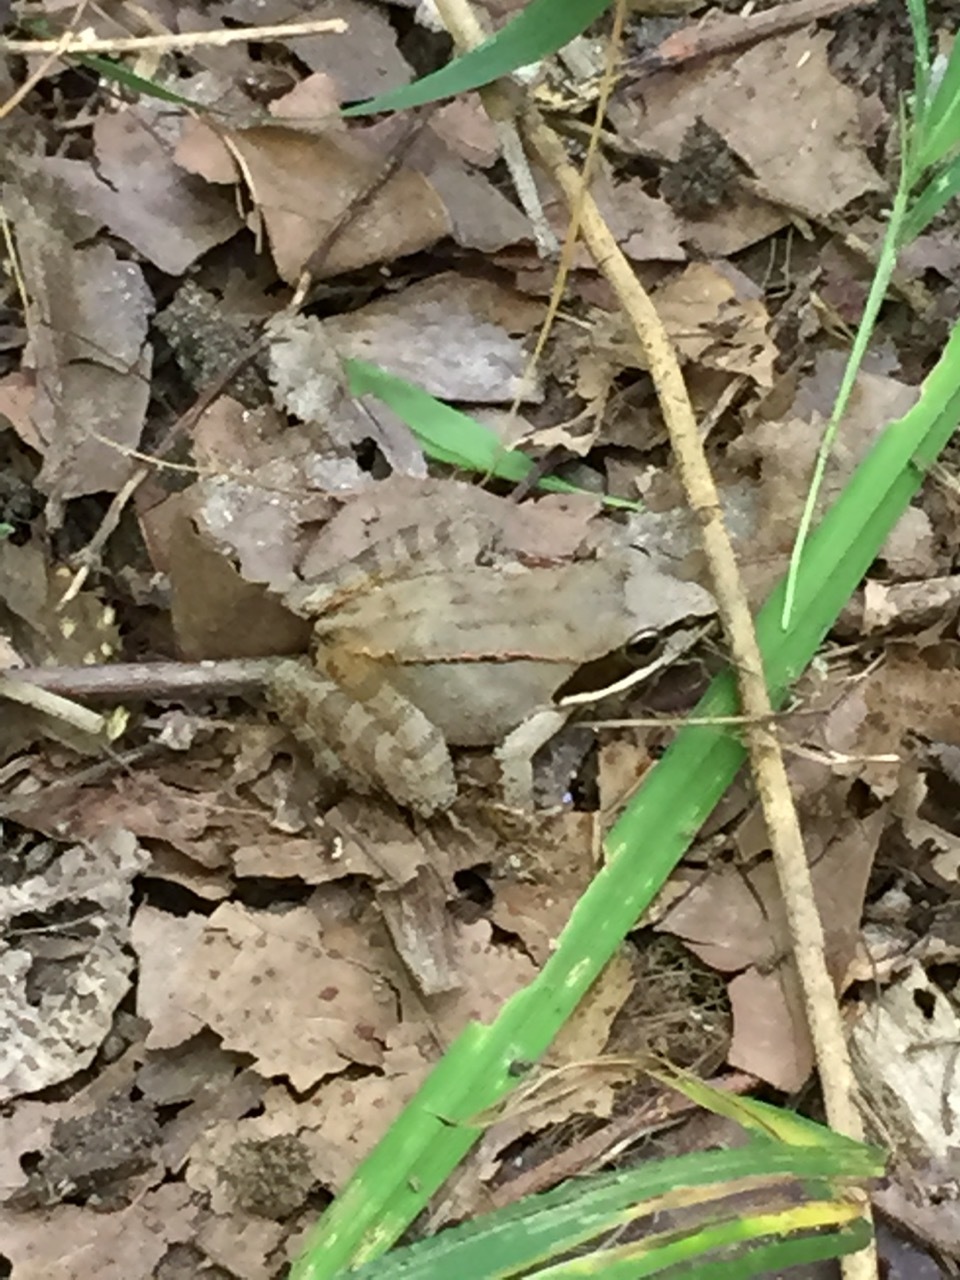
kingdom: Animalia
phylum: Chordata
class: Amphibia
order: Anura
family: Ranidae
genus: Lithobates
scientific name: Lithobates sylvaticus
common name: Wood frog
